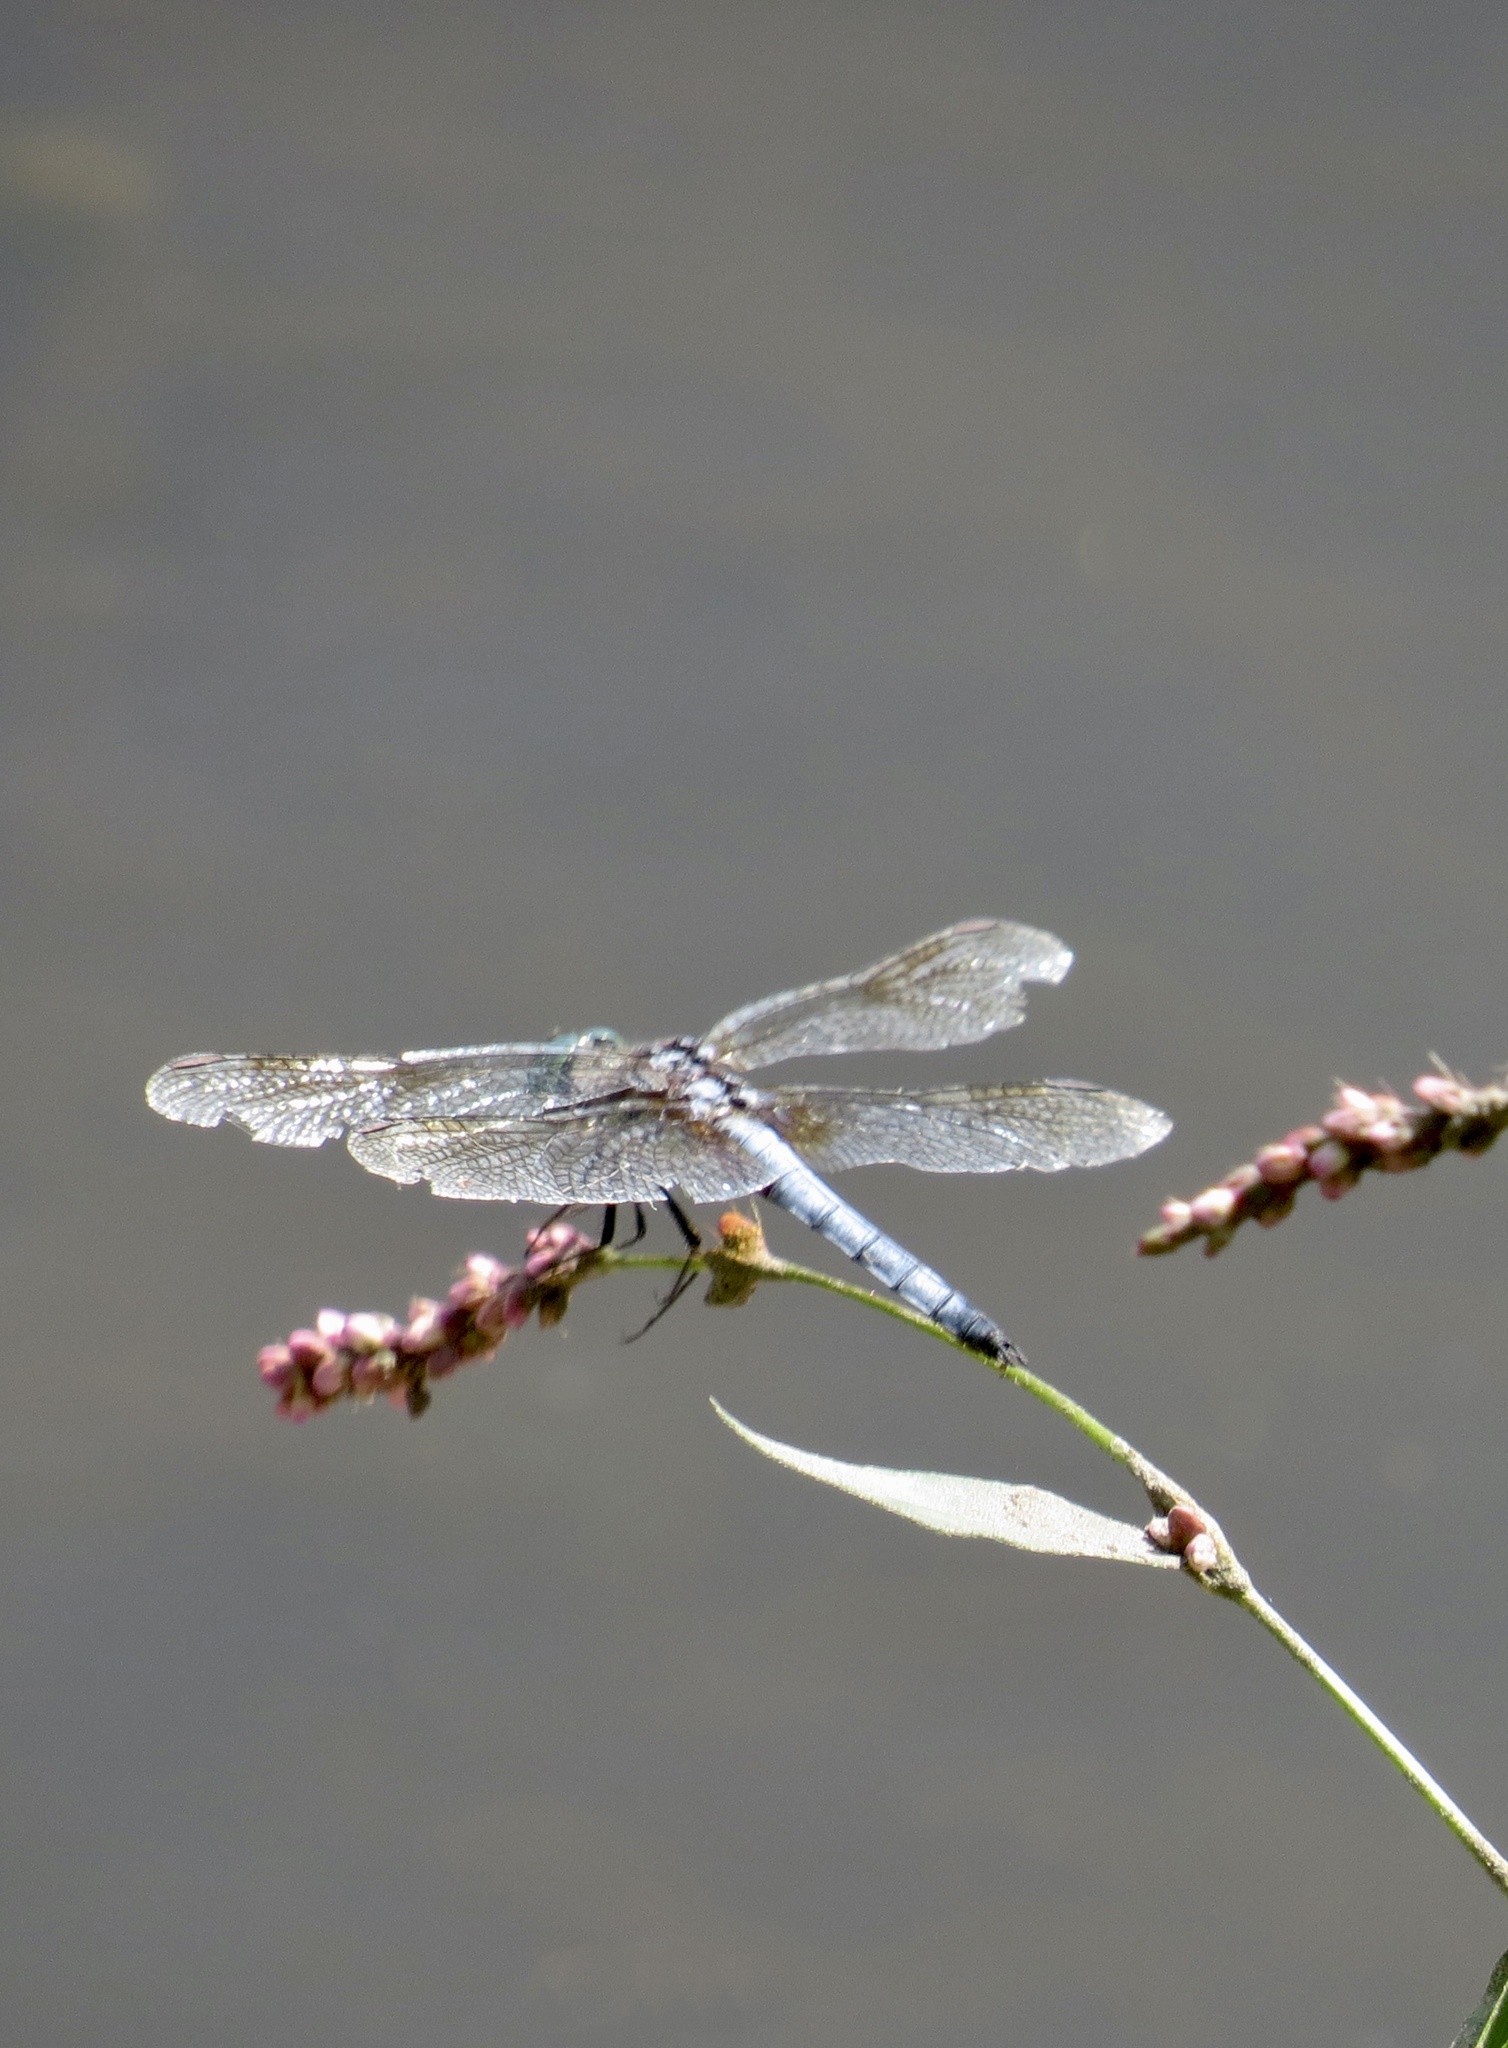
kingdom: Animalia
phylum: Arthropoda
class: Insecta
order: Odonata
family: Libellulidae
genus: Pachydiplax
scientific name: Pachydiplax longipennis
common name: Blue dasher
